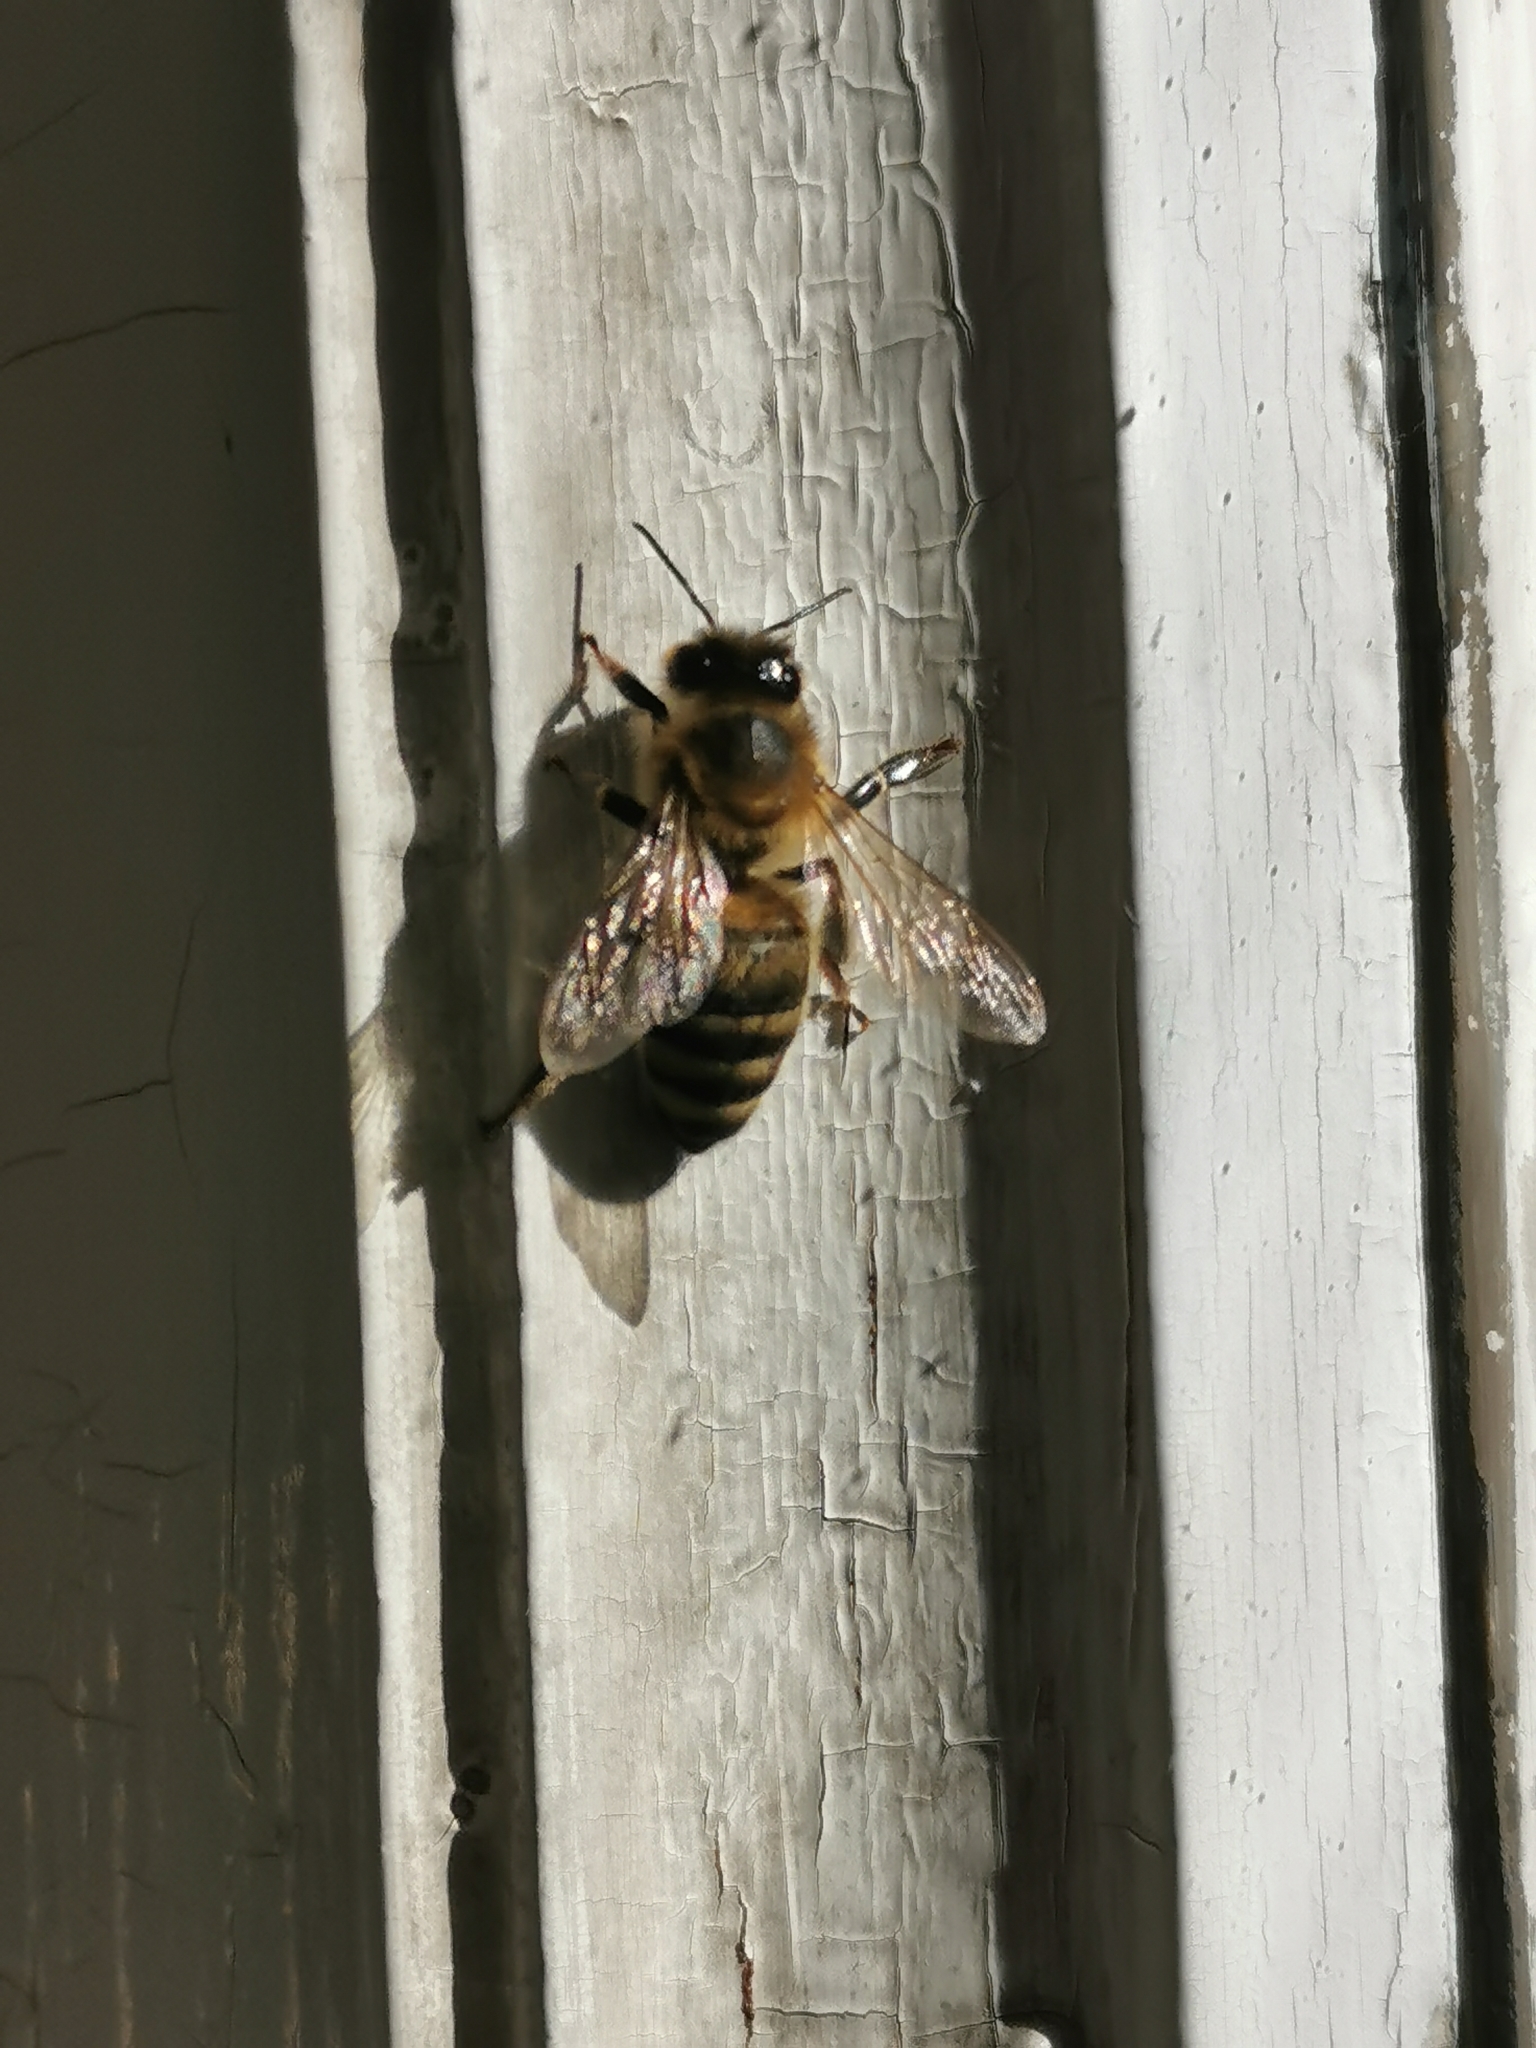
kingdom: Animalia
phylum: Arthropoda
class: Insecta
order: Hymenoptera
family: Apidae
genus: Apis
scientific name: Apis mellifera
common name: Honey bee
